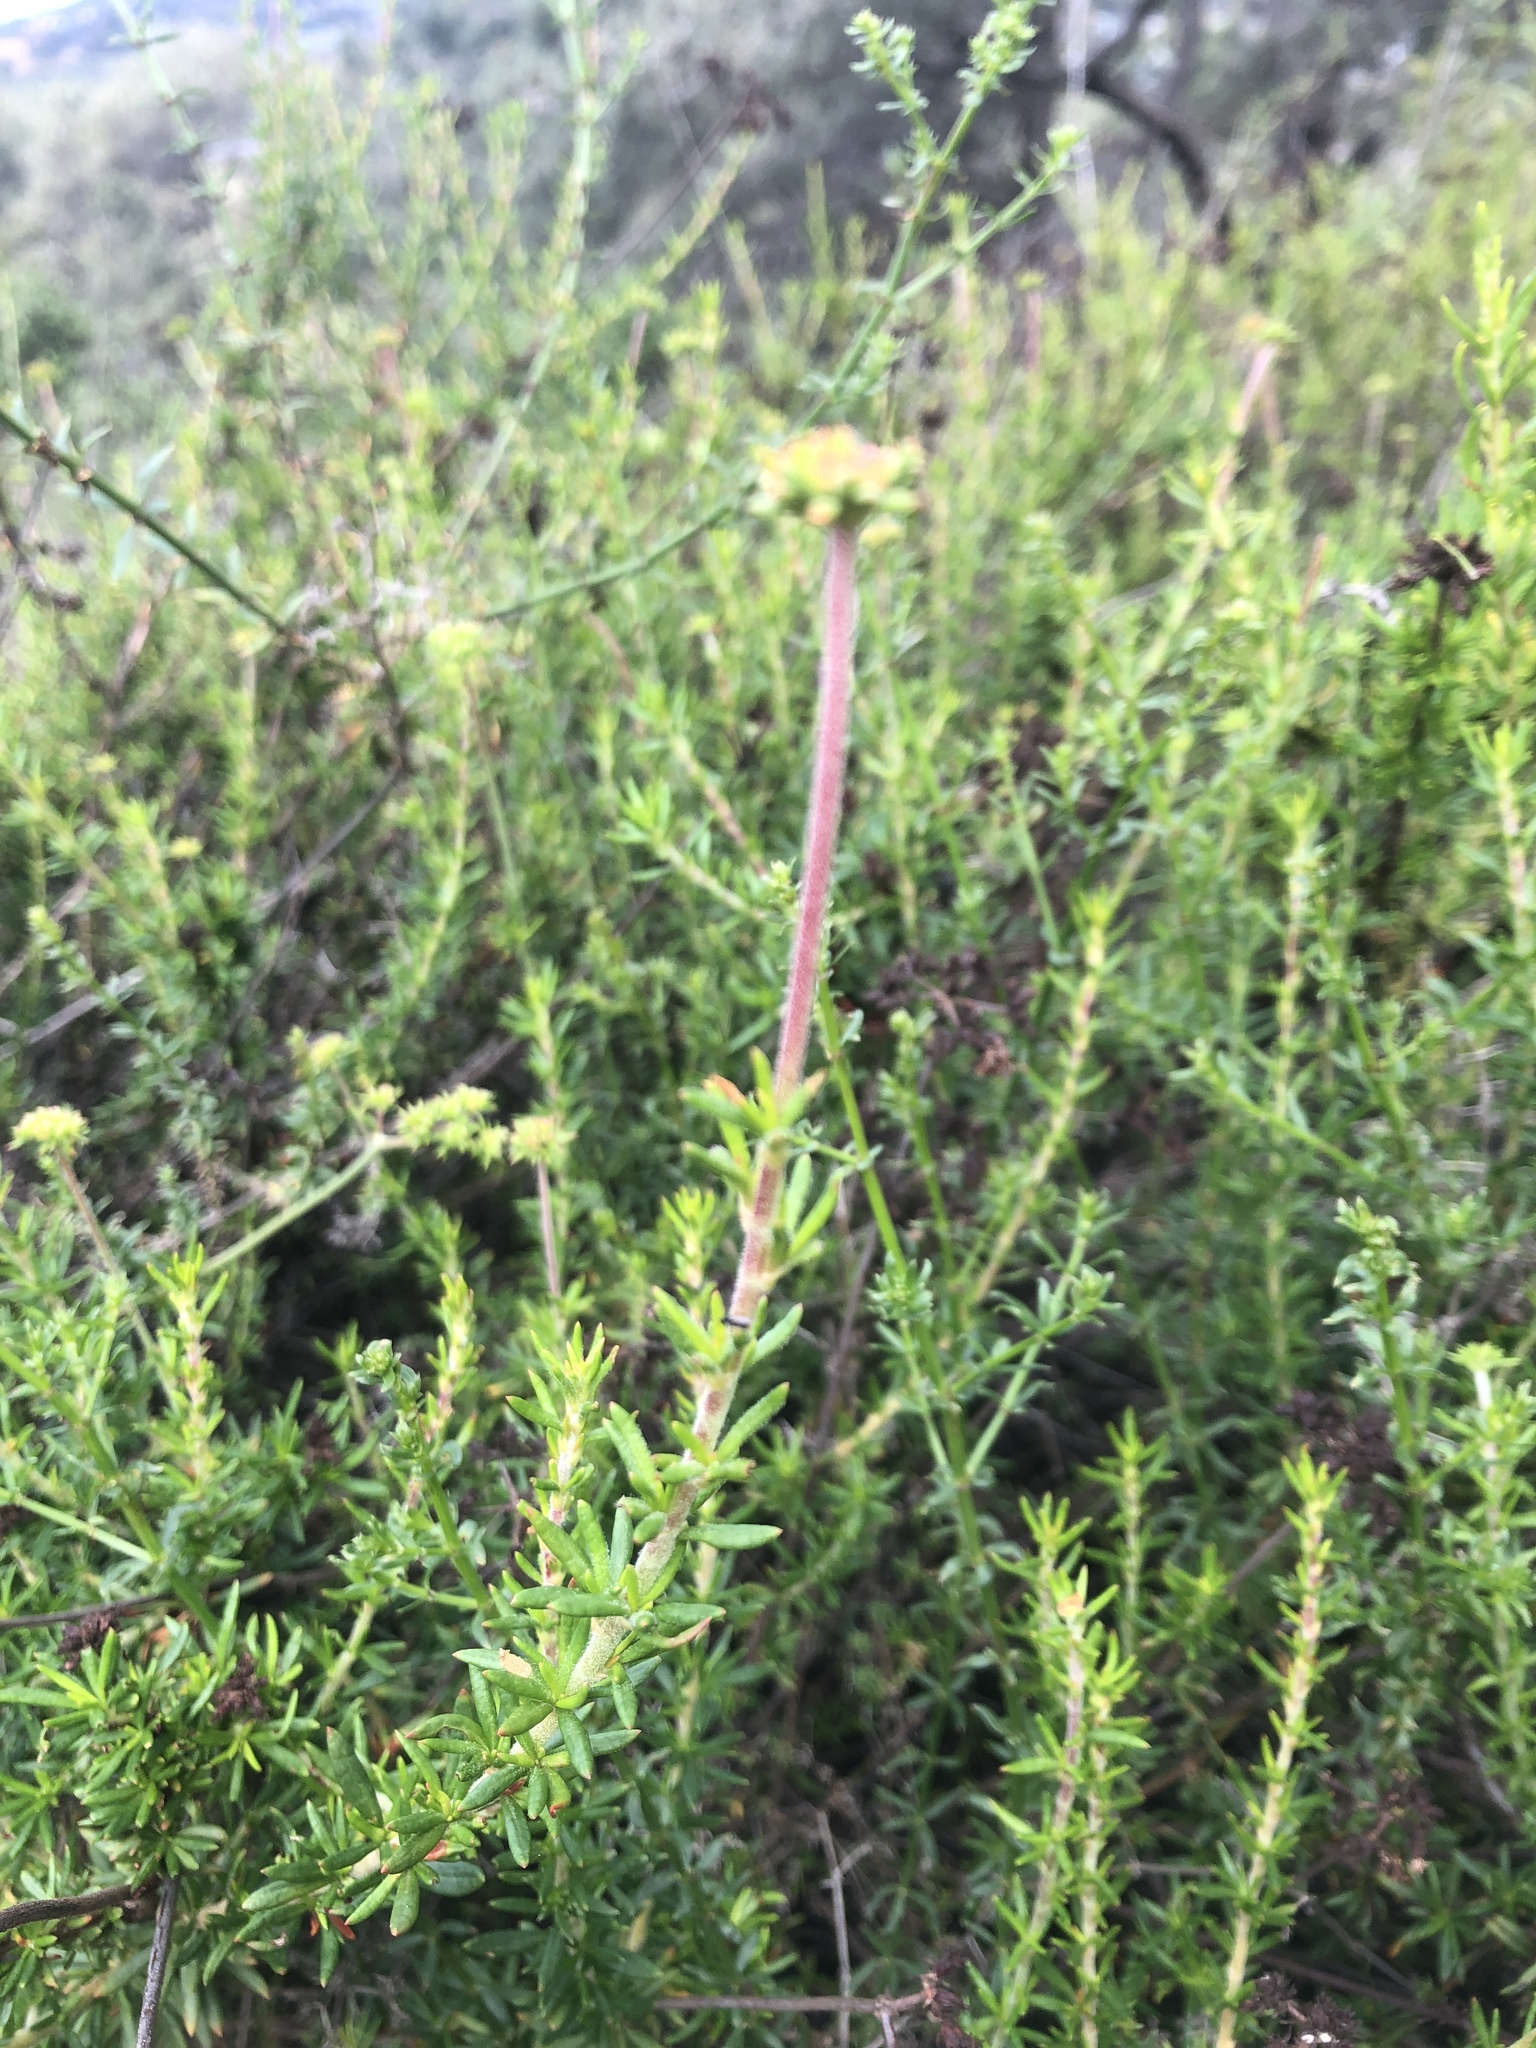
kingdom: Plantae
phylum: Tracheophyta
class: Magnoliopsida
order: Caryophyllales
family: Polygonaceae
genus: Eriogonum
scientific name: Eriogonum fasciculatum
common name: California wild buckwheat
